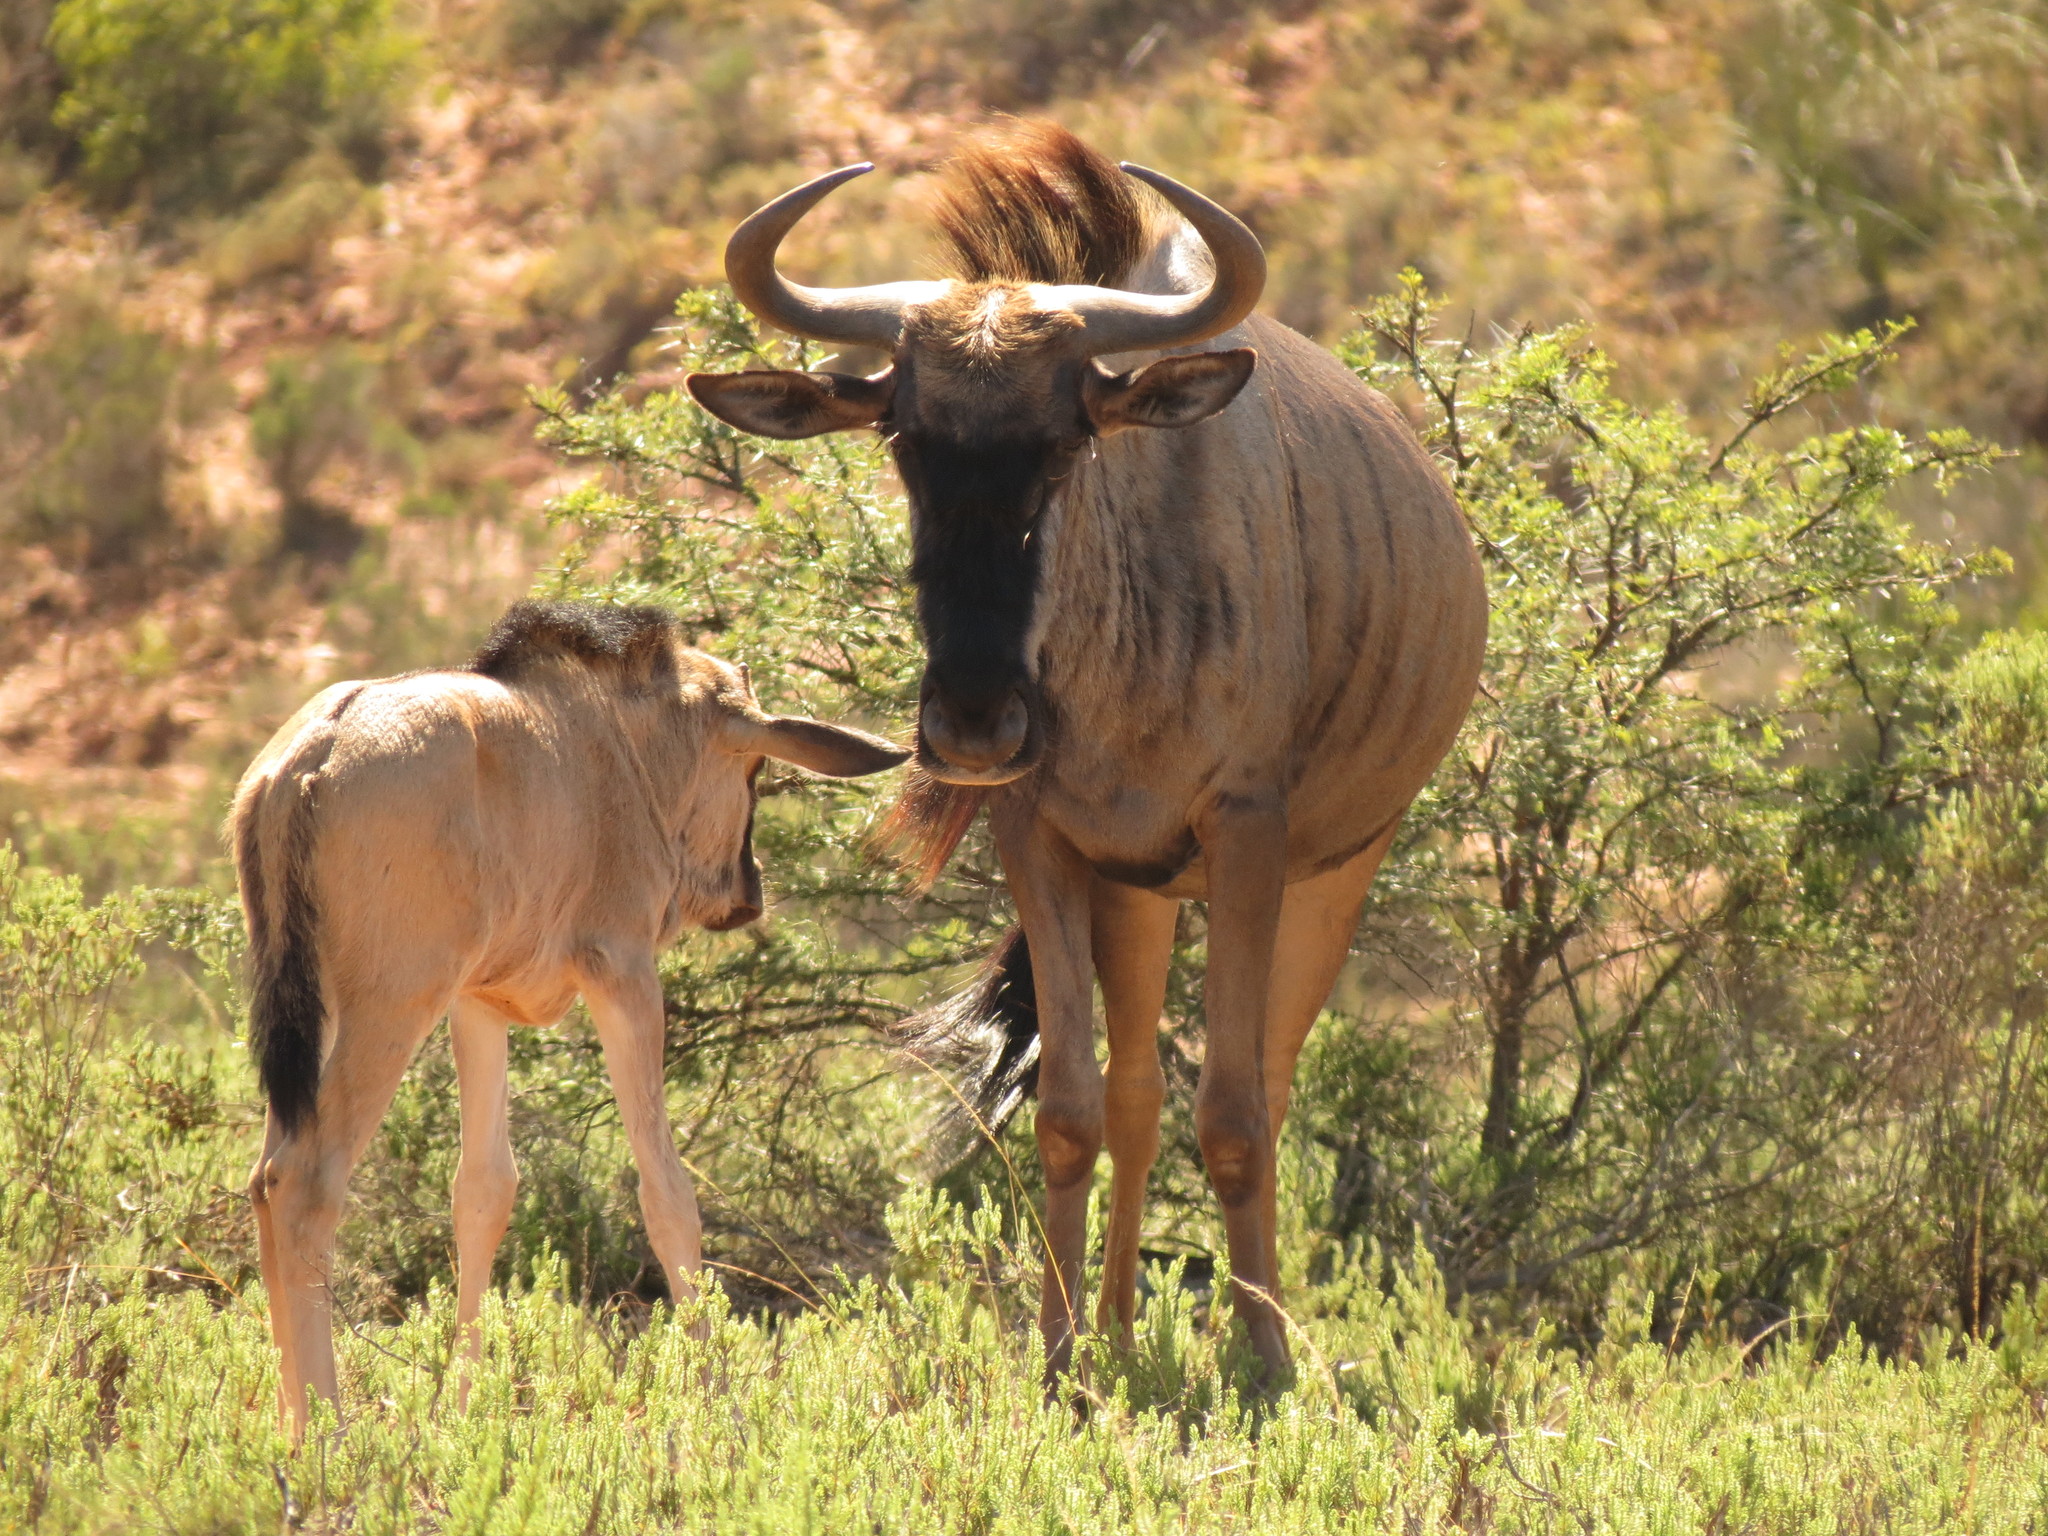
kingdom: Animalia
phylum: Chordata
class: Mammalia
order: Artiodactyla
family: Bovidae
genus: Connochaetes
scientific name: Connochaetes taurinus
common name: Blue wildebeest
